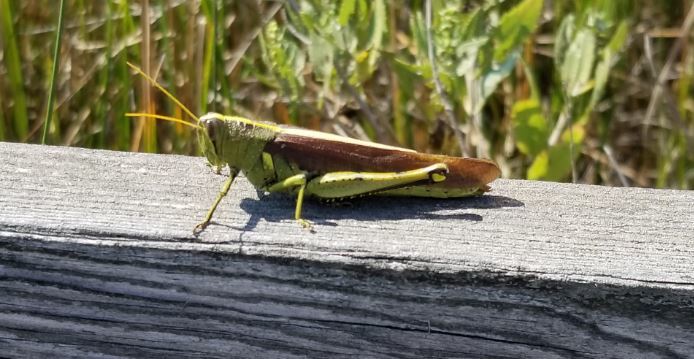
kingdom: Animalia
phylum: Arthropoda
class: Insecta
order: Orthoptera
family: Acrididae
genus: Schistocerca
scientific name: Schistocerca obscura
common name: Obscure bird grasshopper
